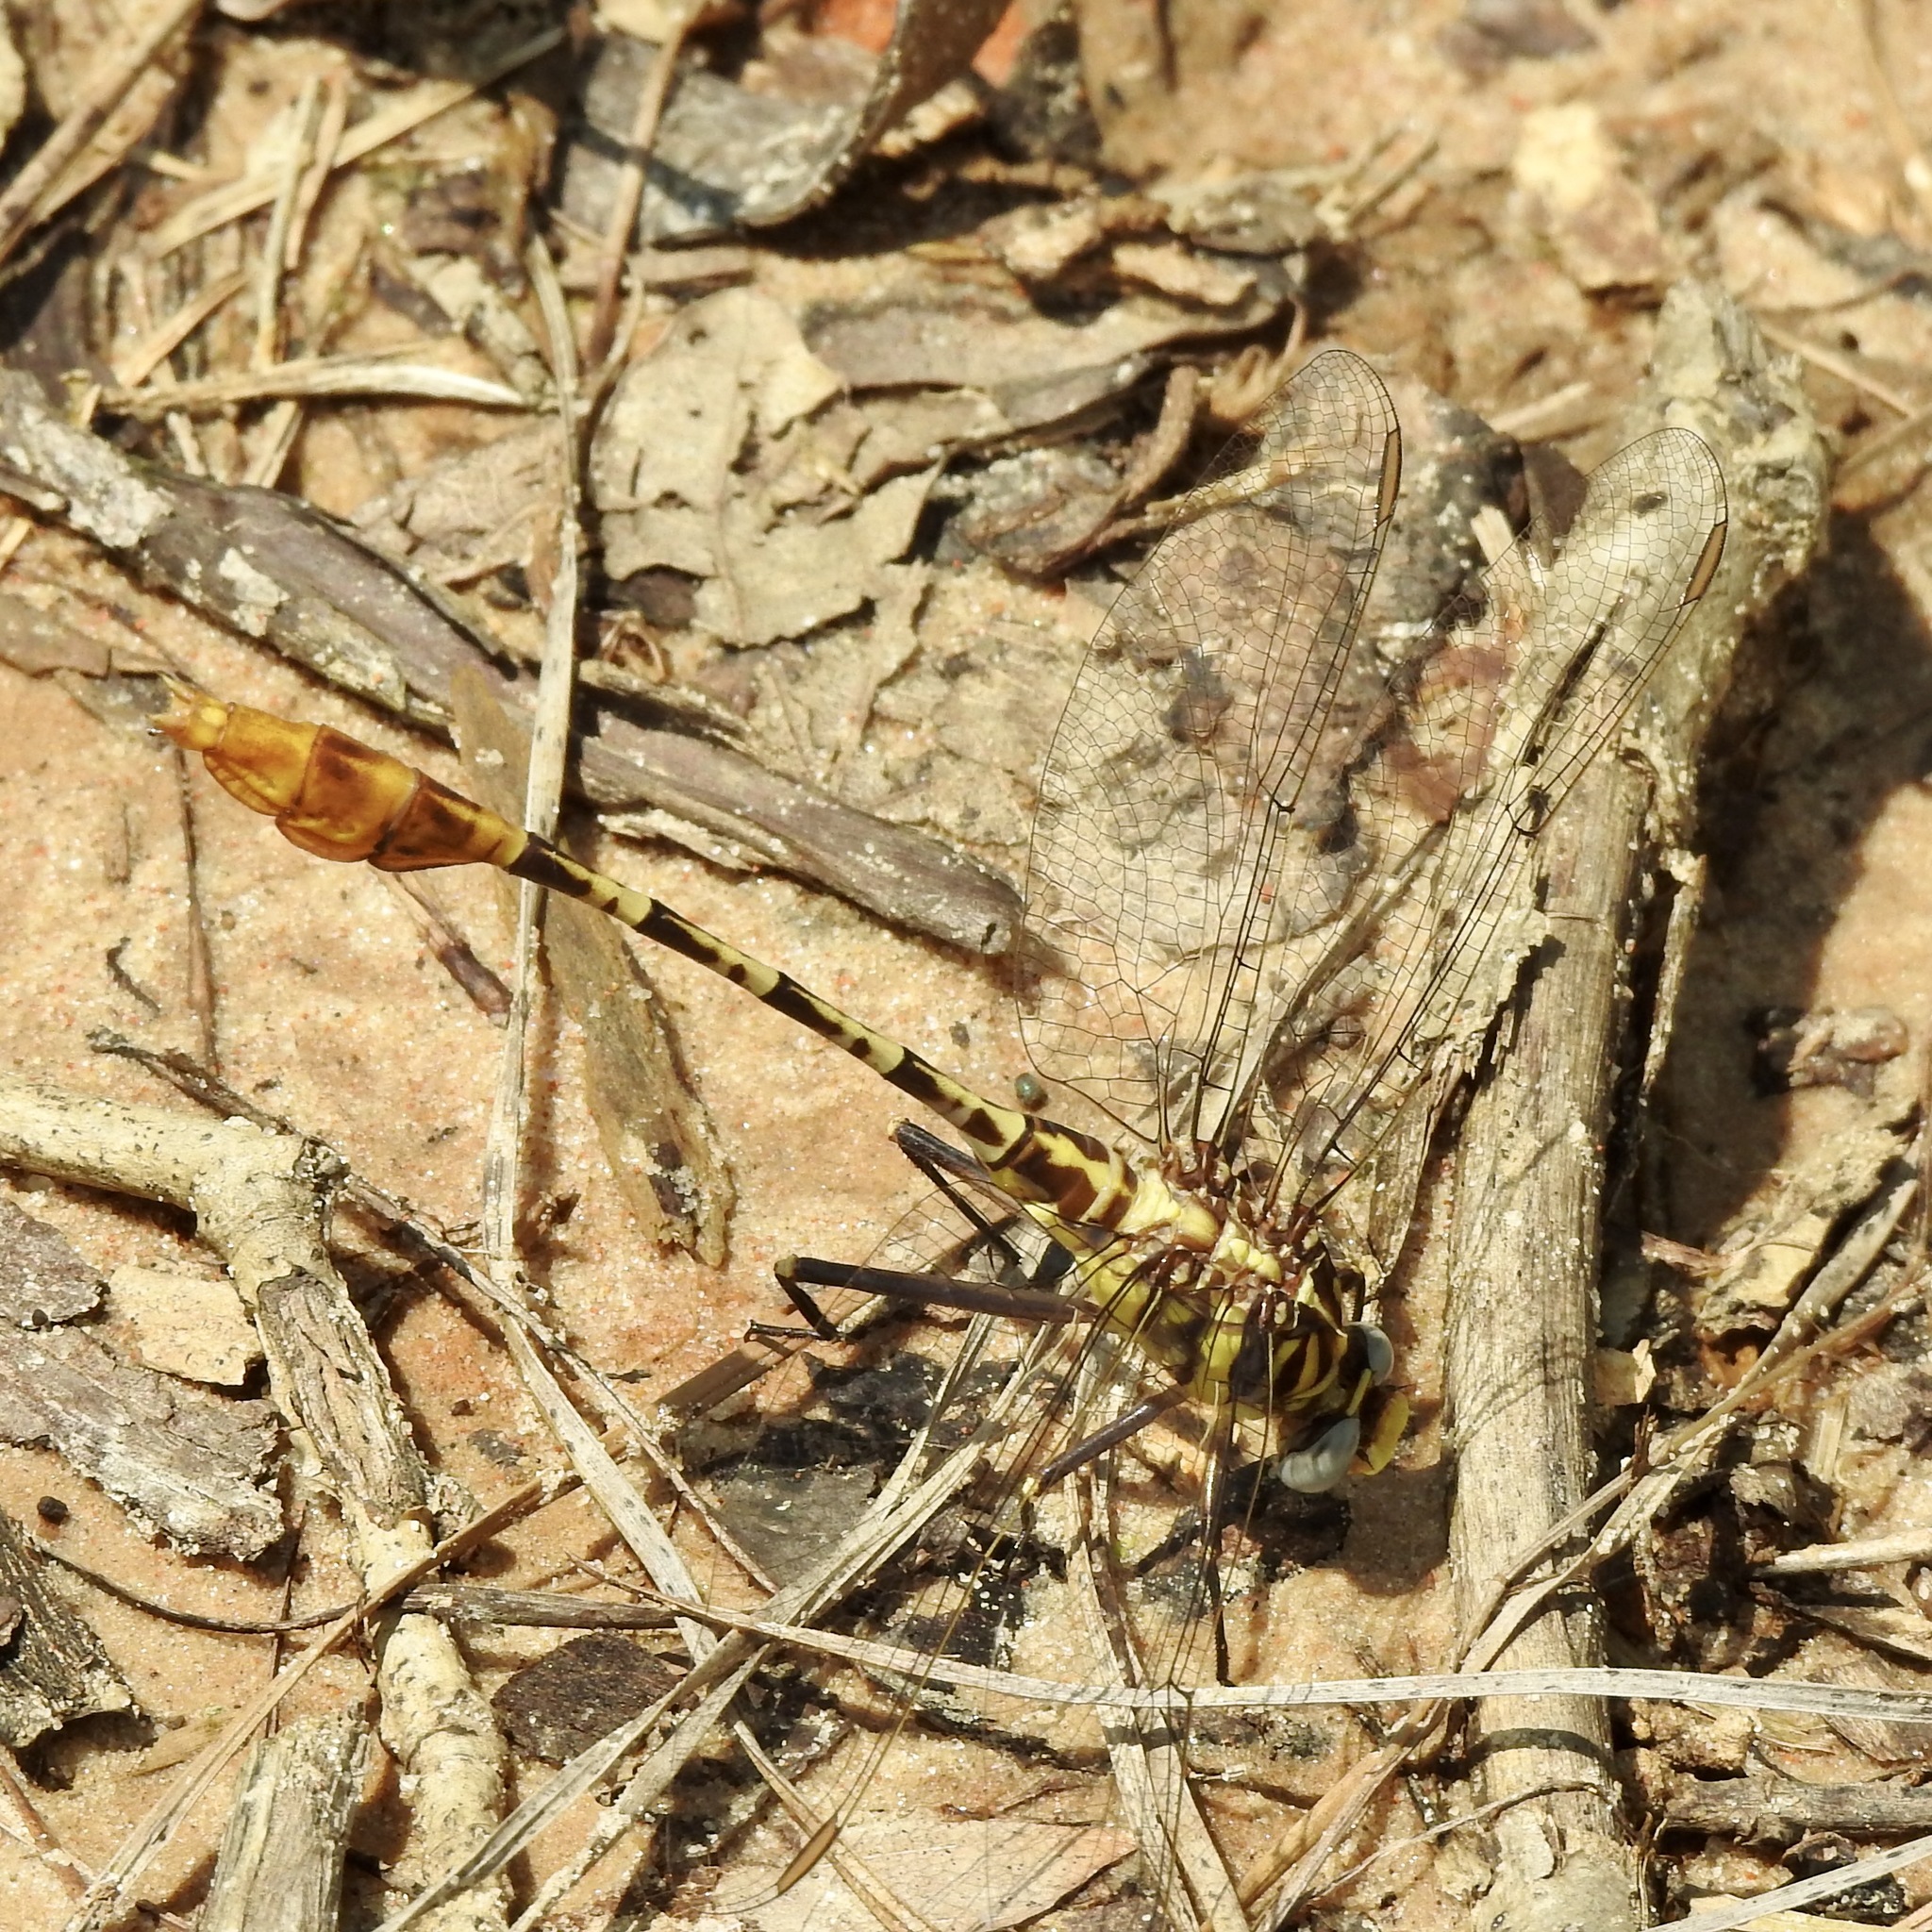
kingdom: Animalia
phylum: Arthropoda
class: Insecta
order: Odonata
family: Gomphidae
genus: Dromogomphus
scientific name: Dromogomphus spoliatus
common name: Flag-tailed spinyleg
